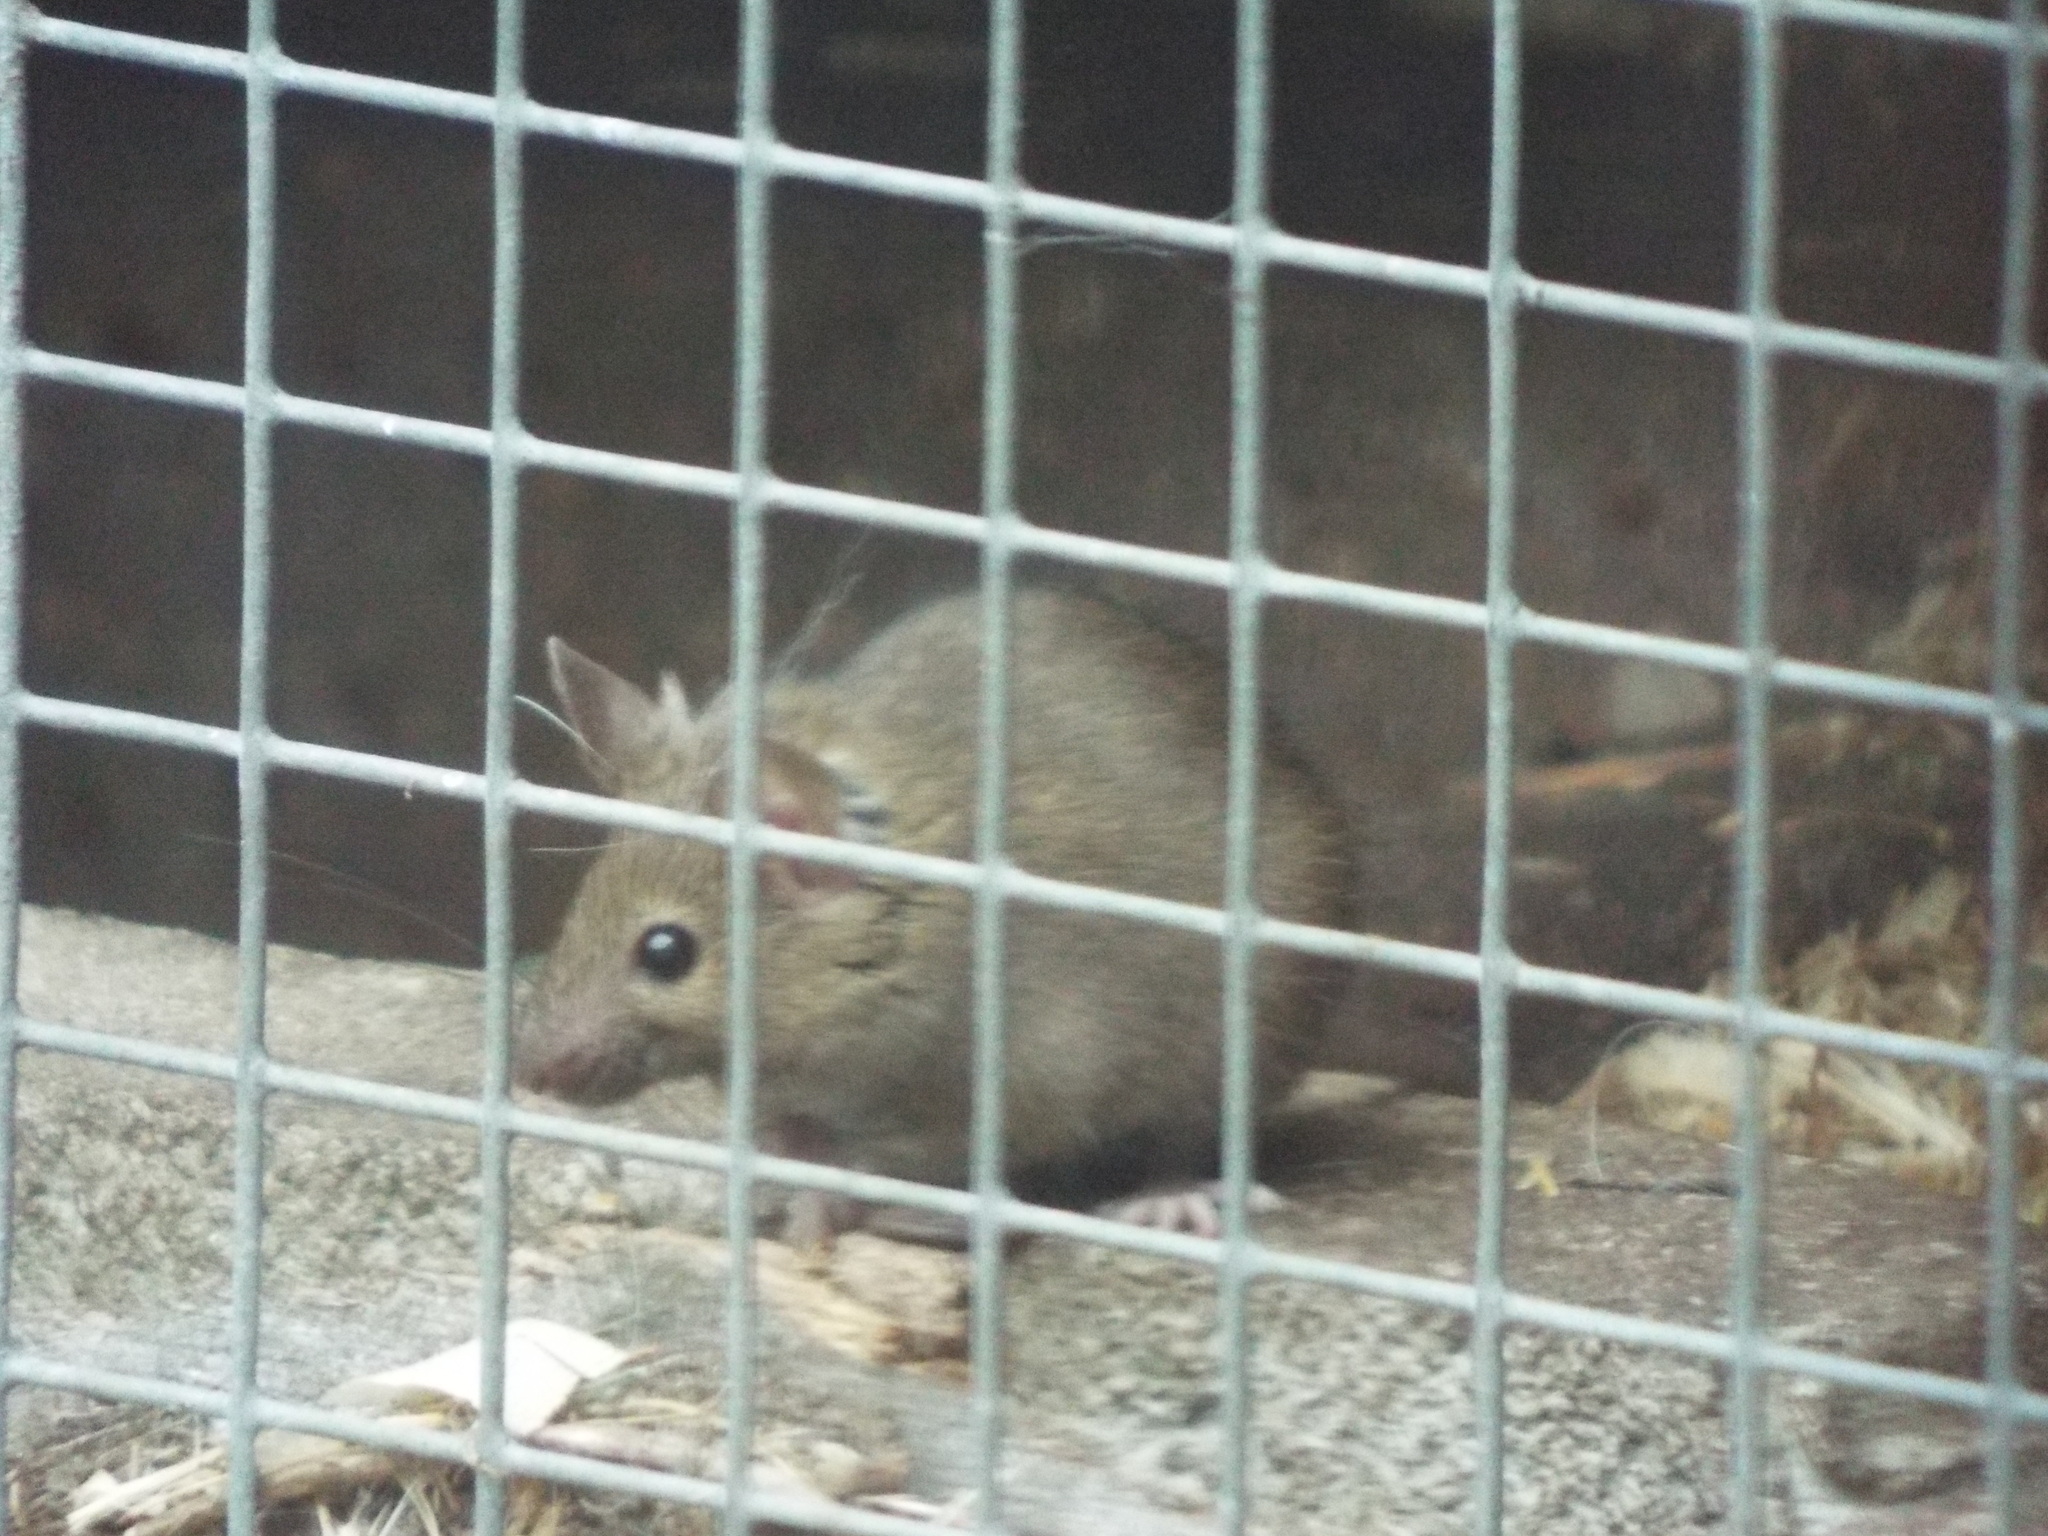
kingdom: Animalia
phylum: Chordata
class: Mammalia
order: Rodentia
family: Muridae
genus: Mus
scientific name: Mus musculus
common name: House mouse
